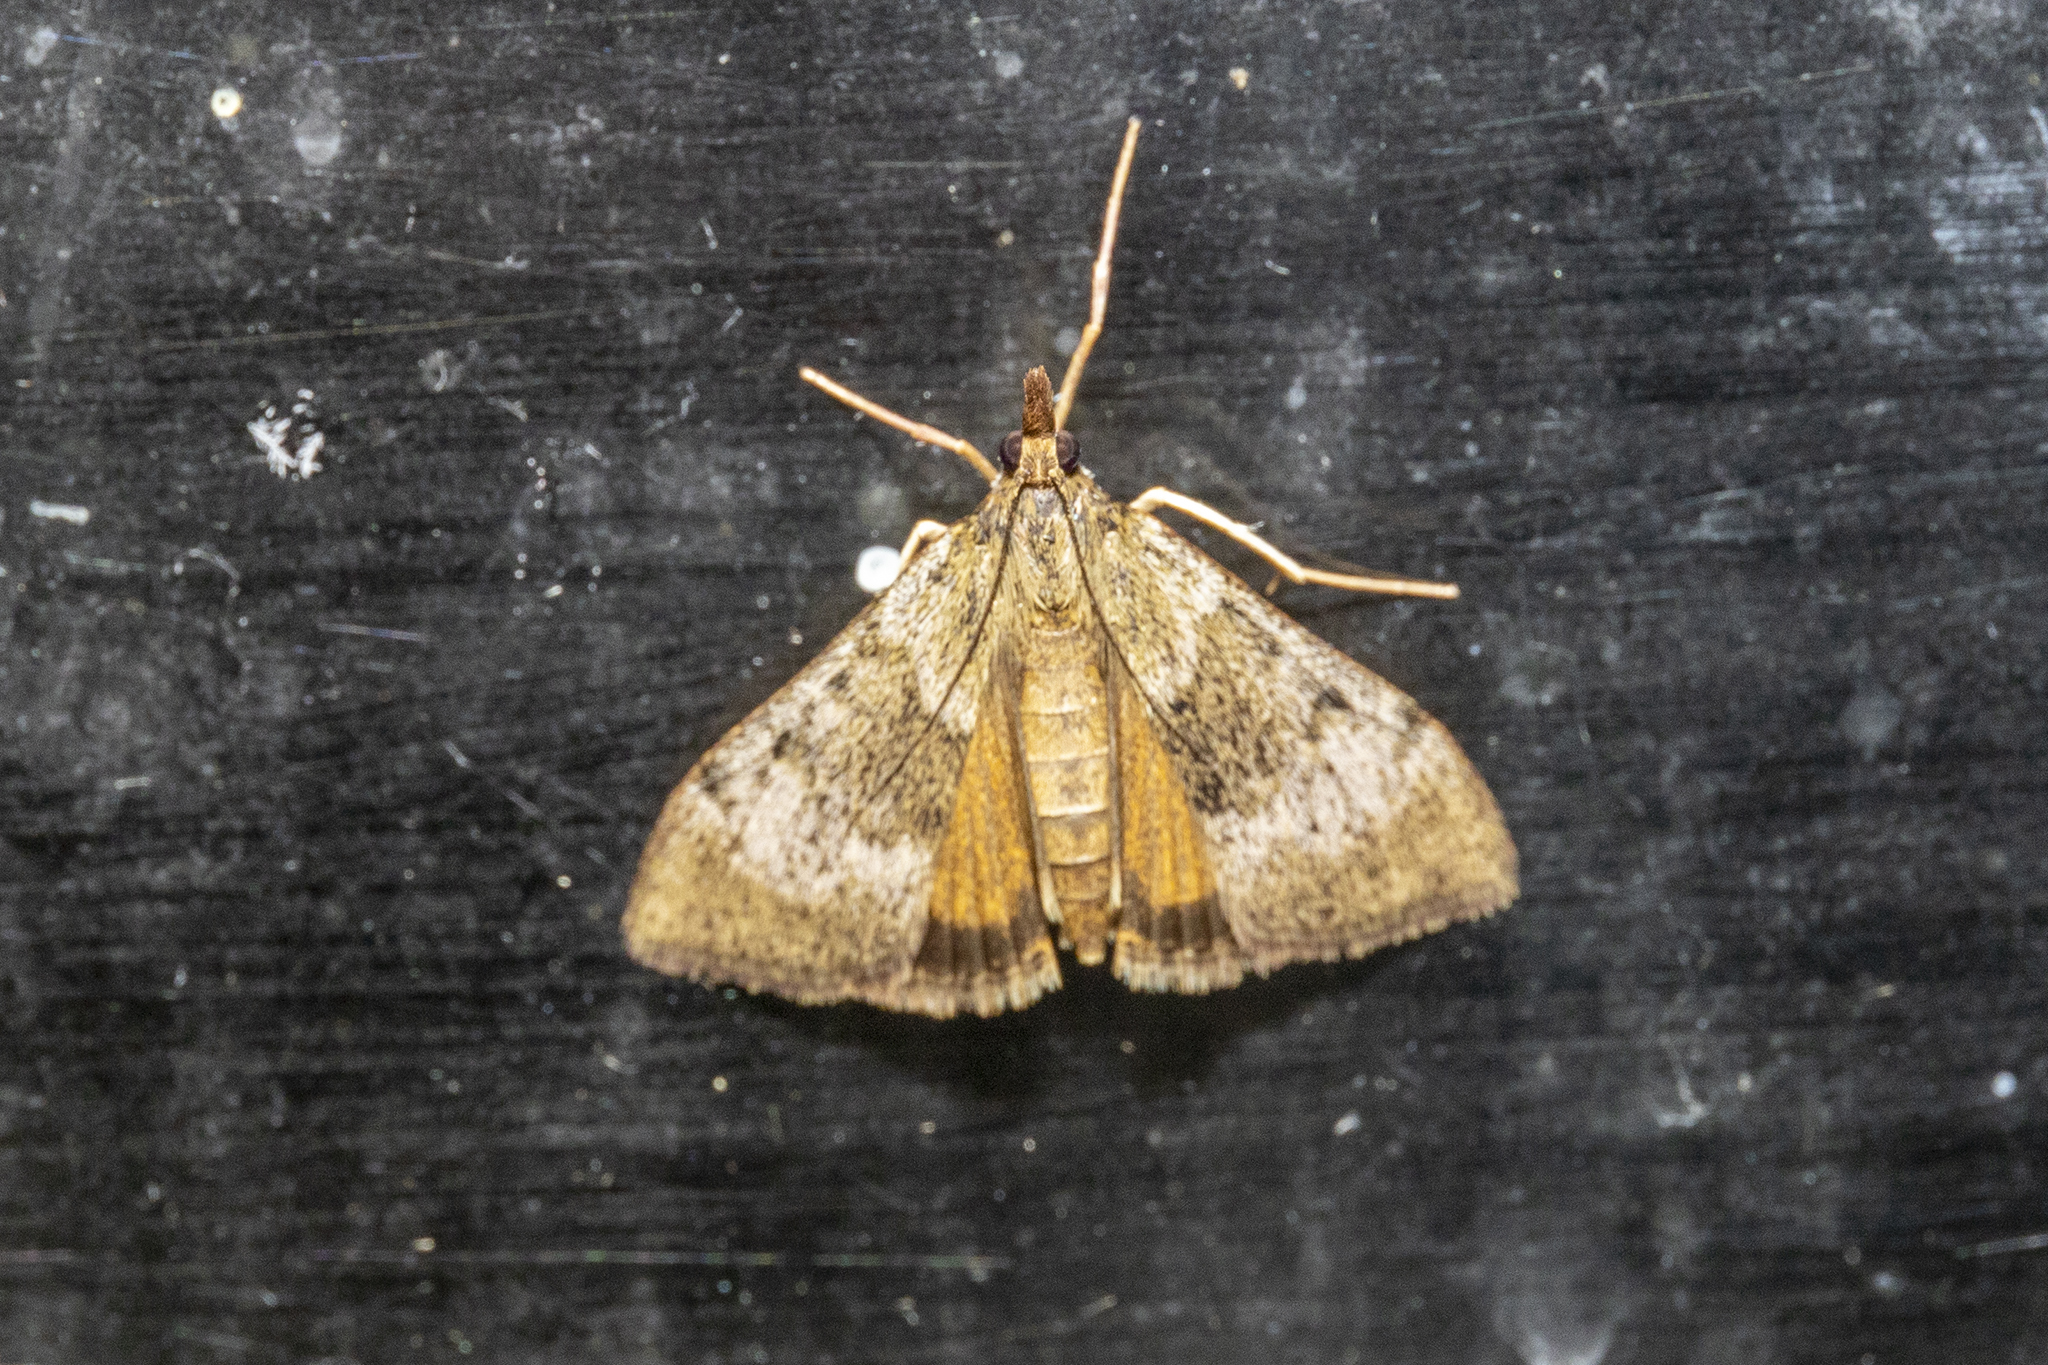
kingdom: Animalia
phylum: Arthropoda
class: Insecta
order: Lepidoptera
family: Crambidae
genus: Uresiphita
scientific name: Uresiphita
